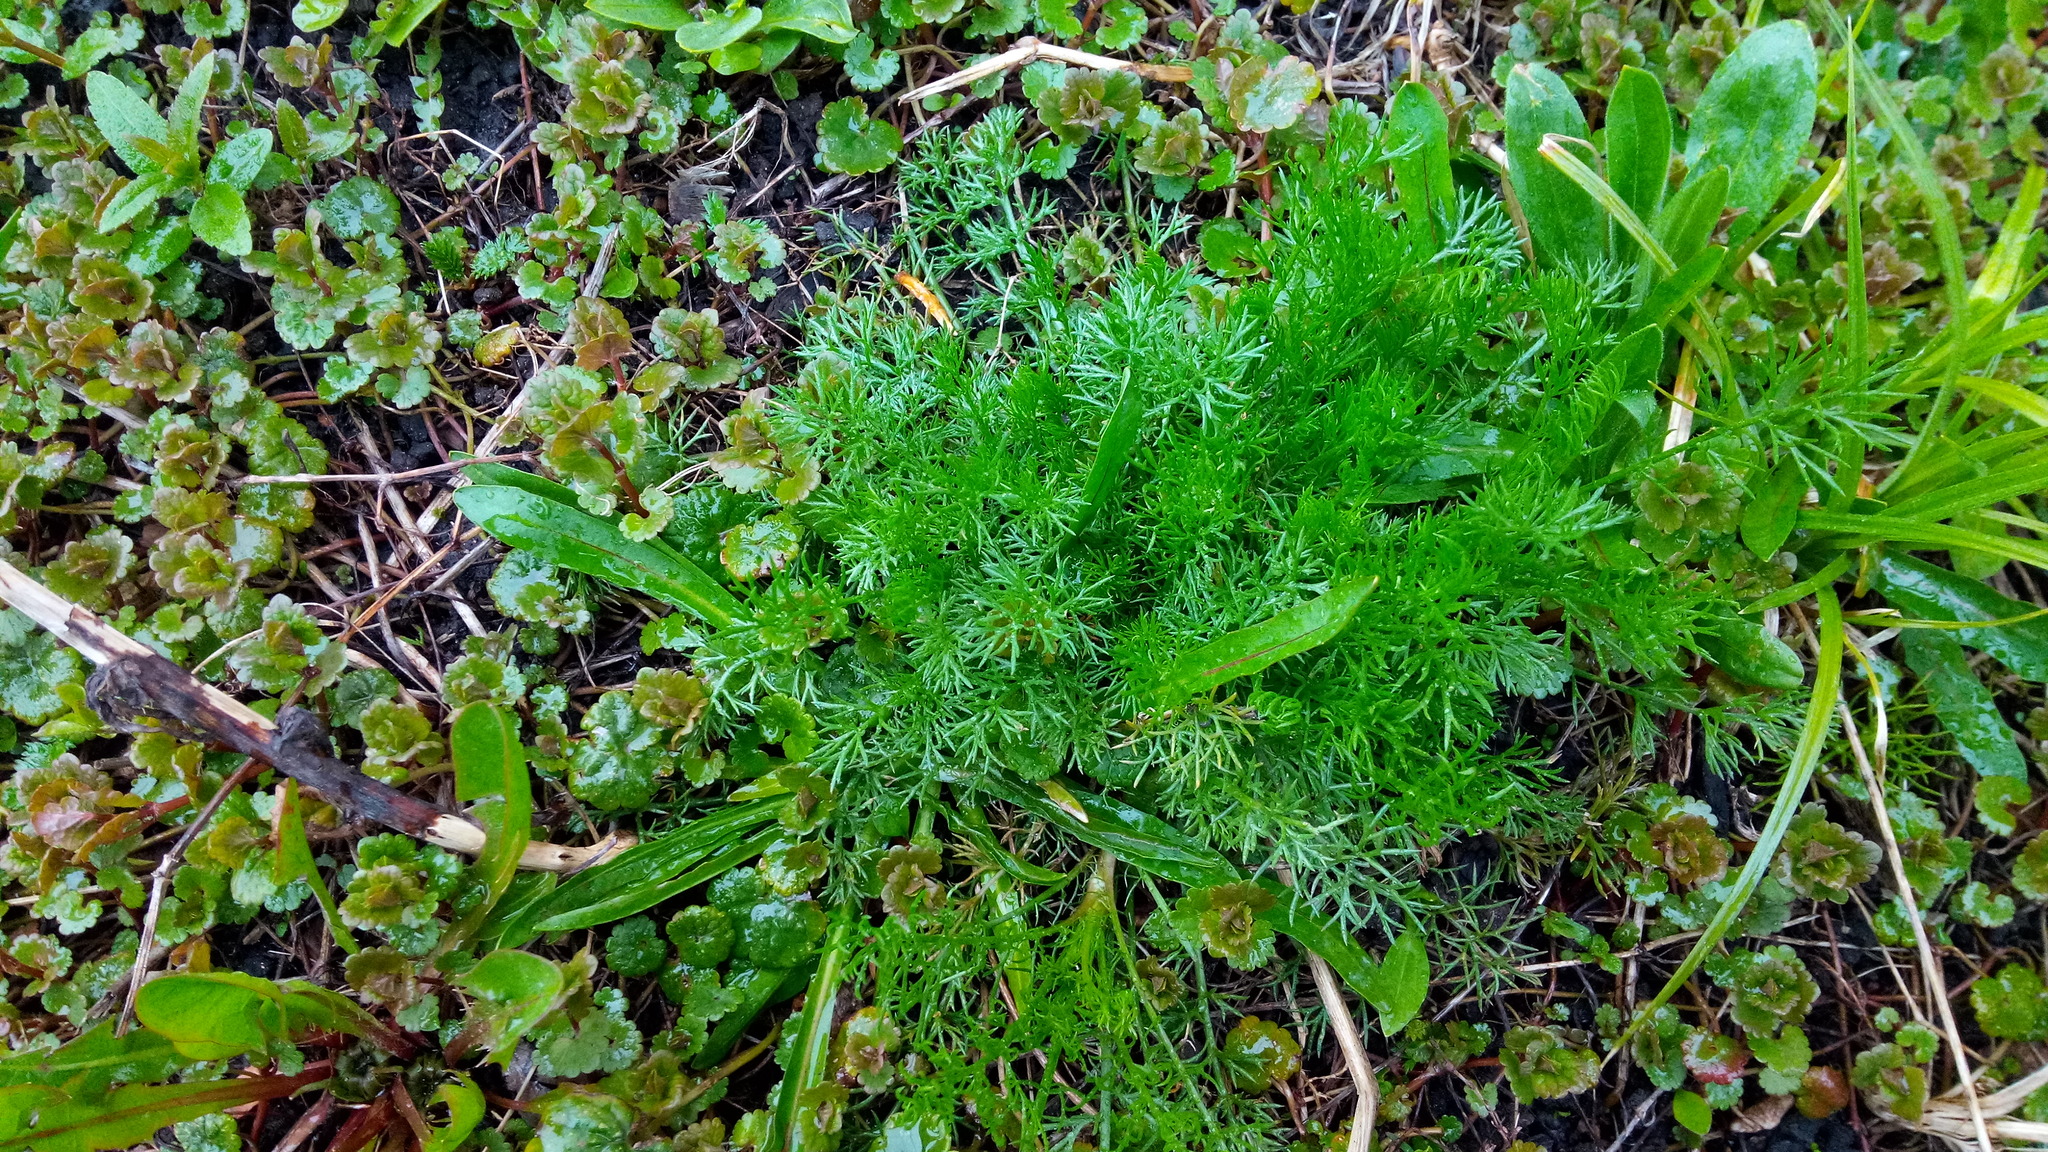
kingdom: Plantae
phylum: Tracheophyta
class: Magnoliopsida
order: Asterales
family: Asteraceae
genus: Tripleurospermum
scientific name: Tripleurospermum inodorum
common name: Scentless mayweed
